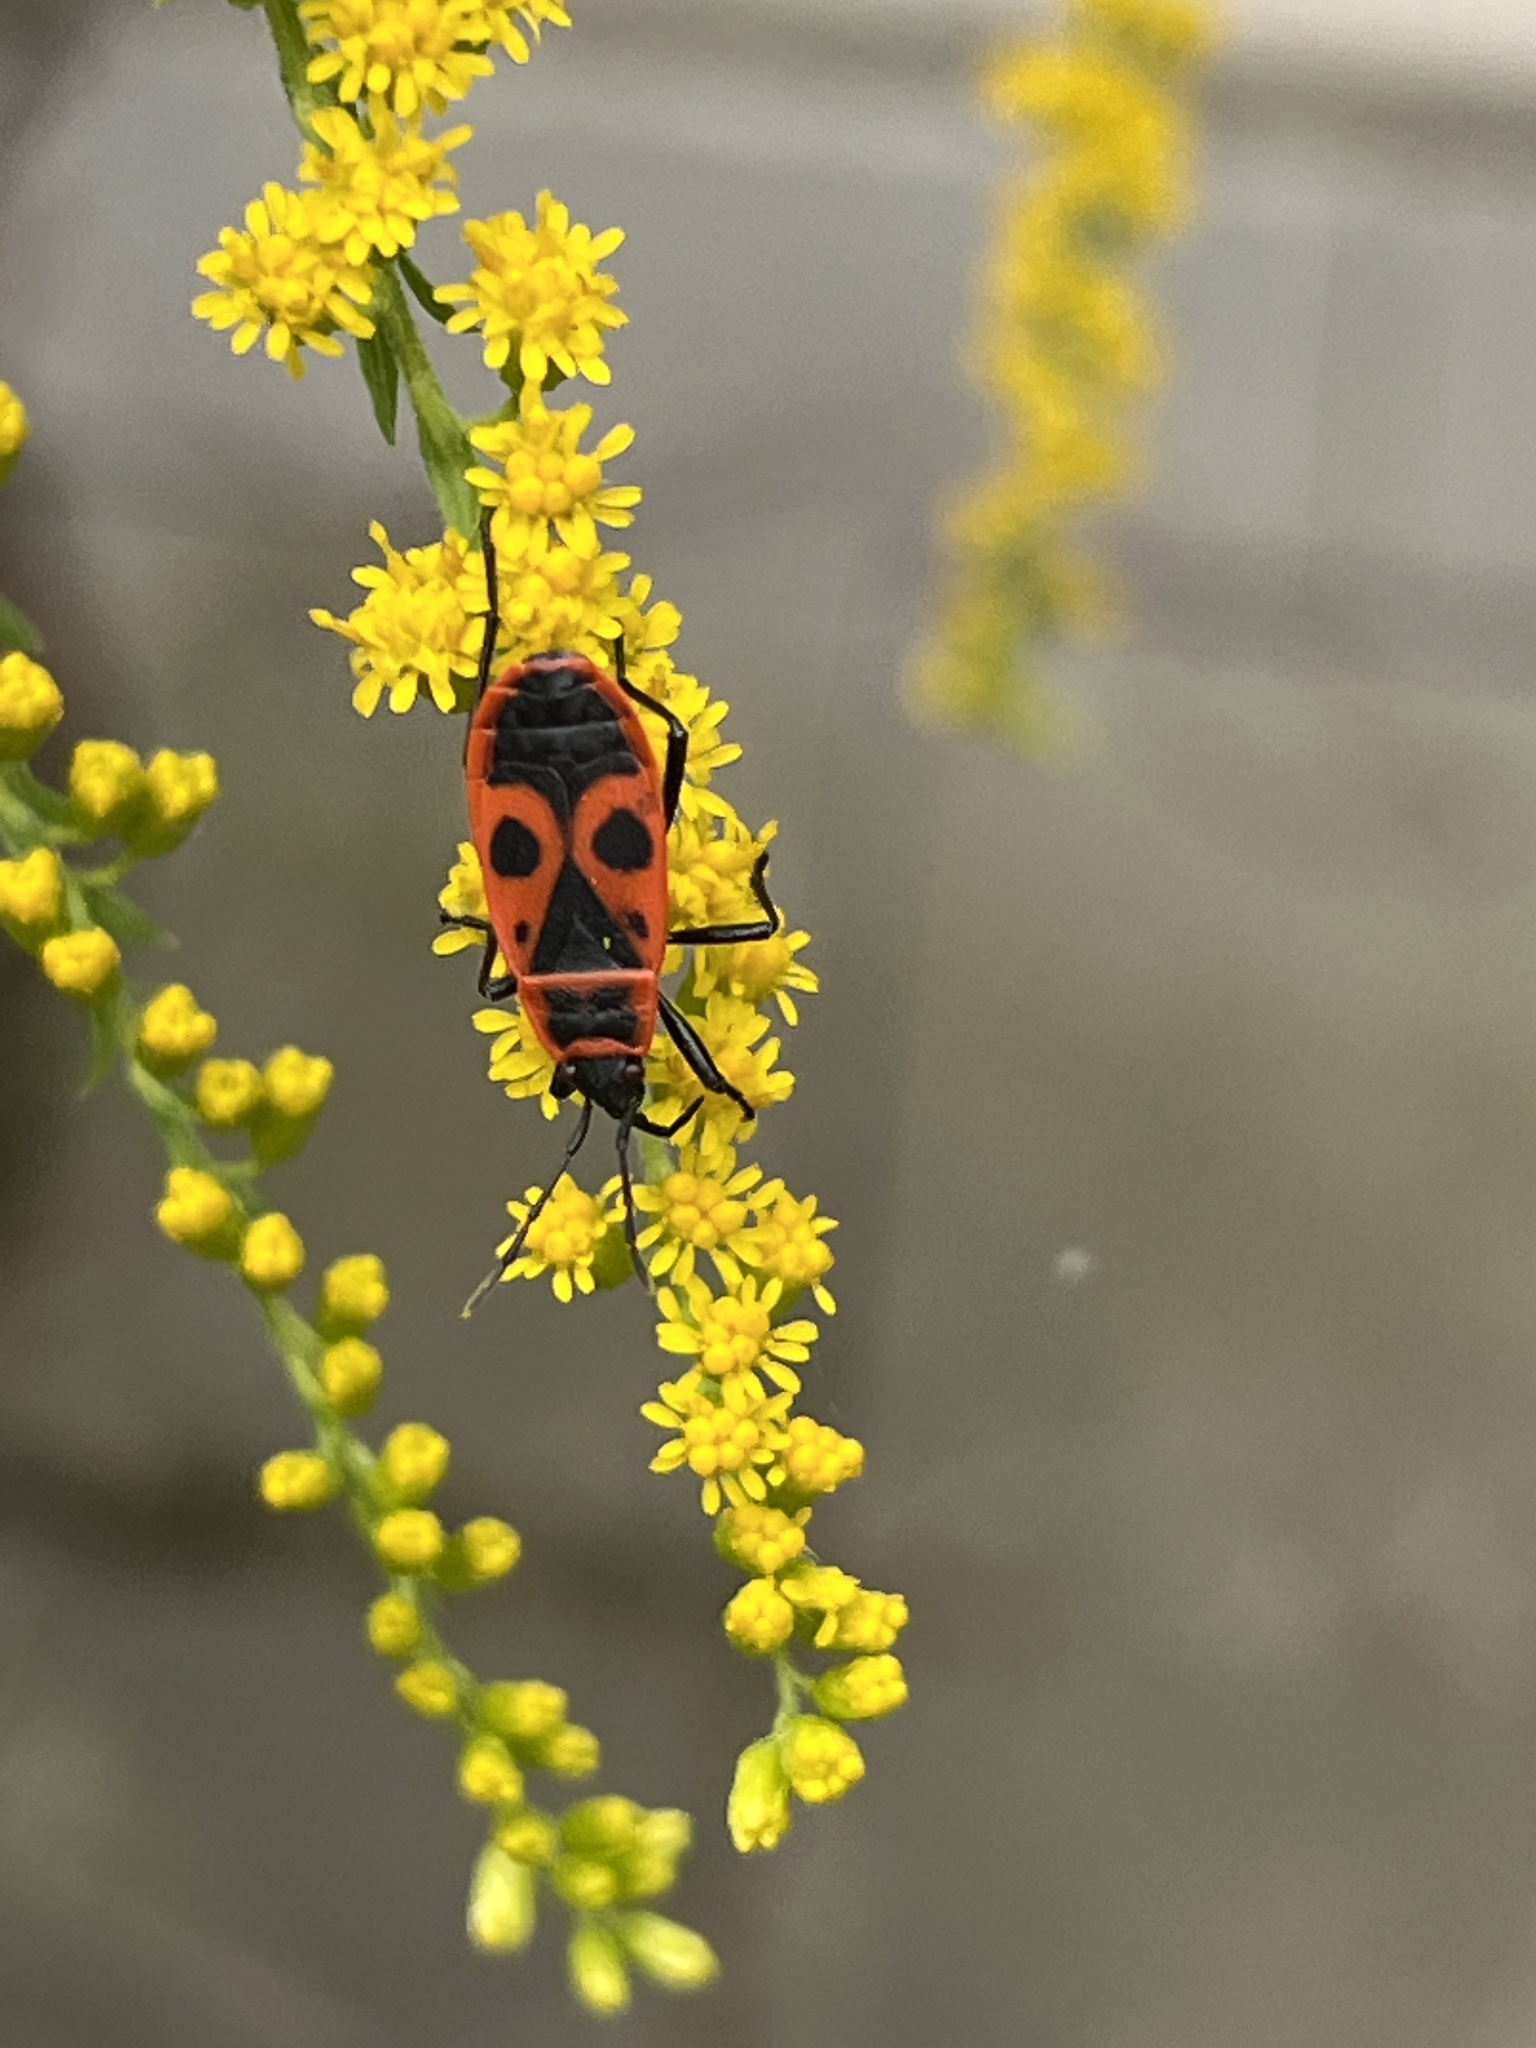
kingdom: Animalia
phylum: Arthropoda
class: Insecta
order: Hemiptera
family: Pyrrhocoridae
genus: Pyrrhocoris
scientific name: Pyrrhocoris apterus
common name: Firebug
